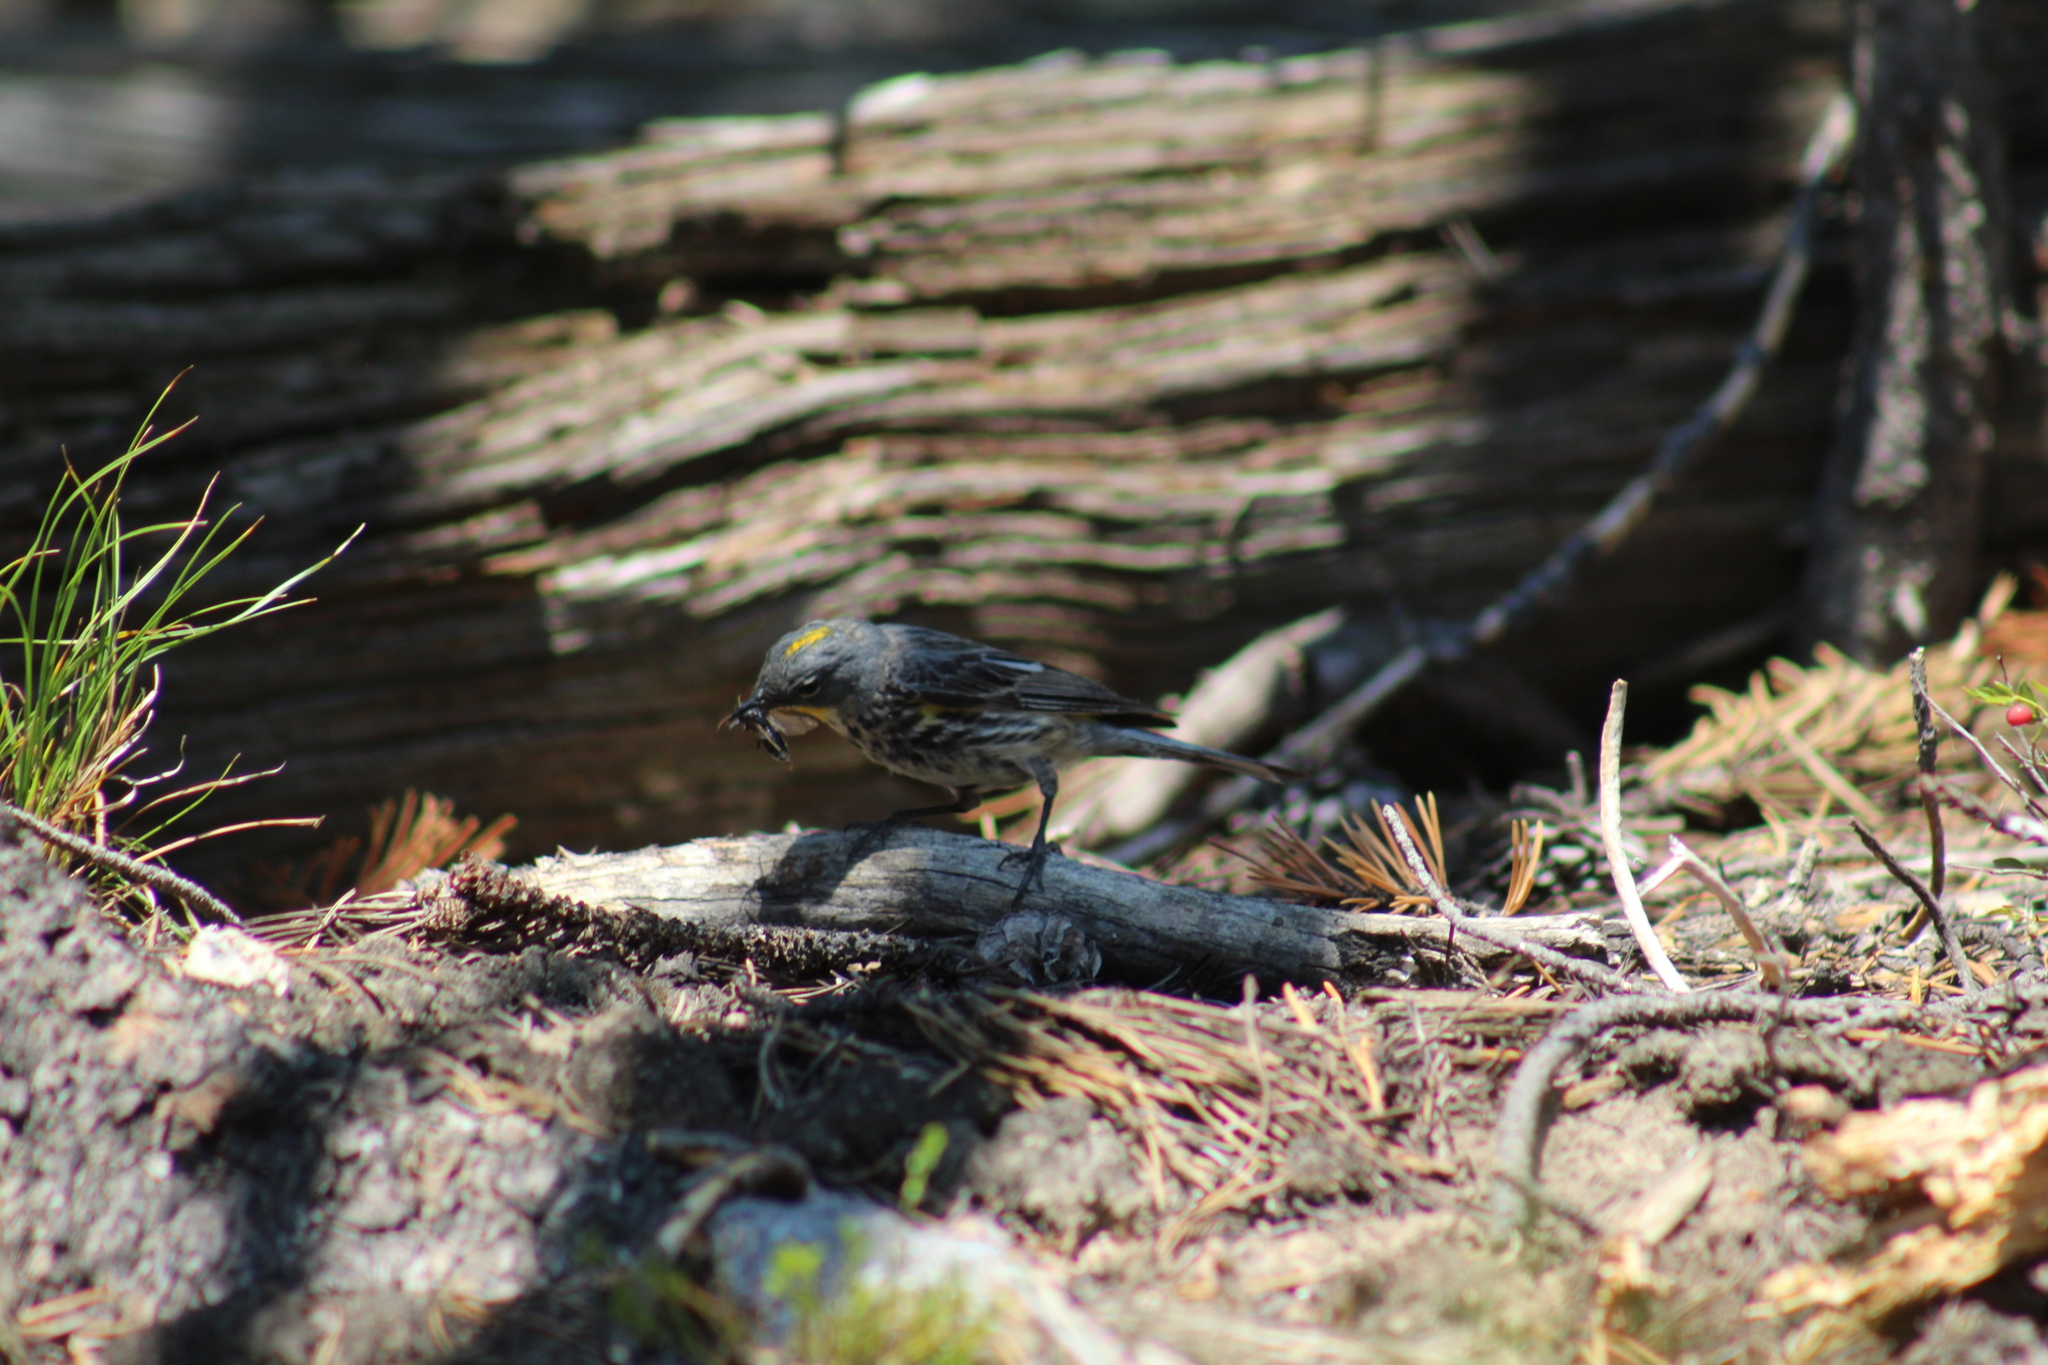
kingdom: Animalia
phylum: Chordata
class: Aves
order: Passeriformes
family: Parulidae
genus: Setophaga
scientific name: Setophaga coronata
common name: Myrtle warbler
